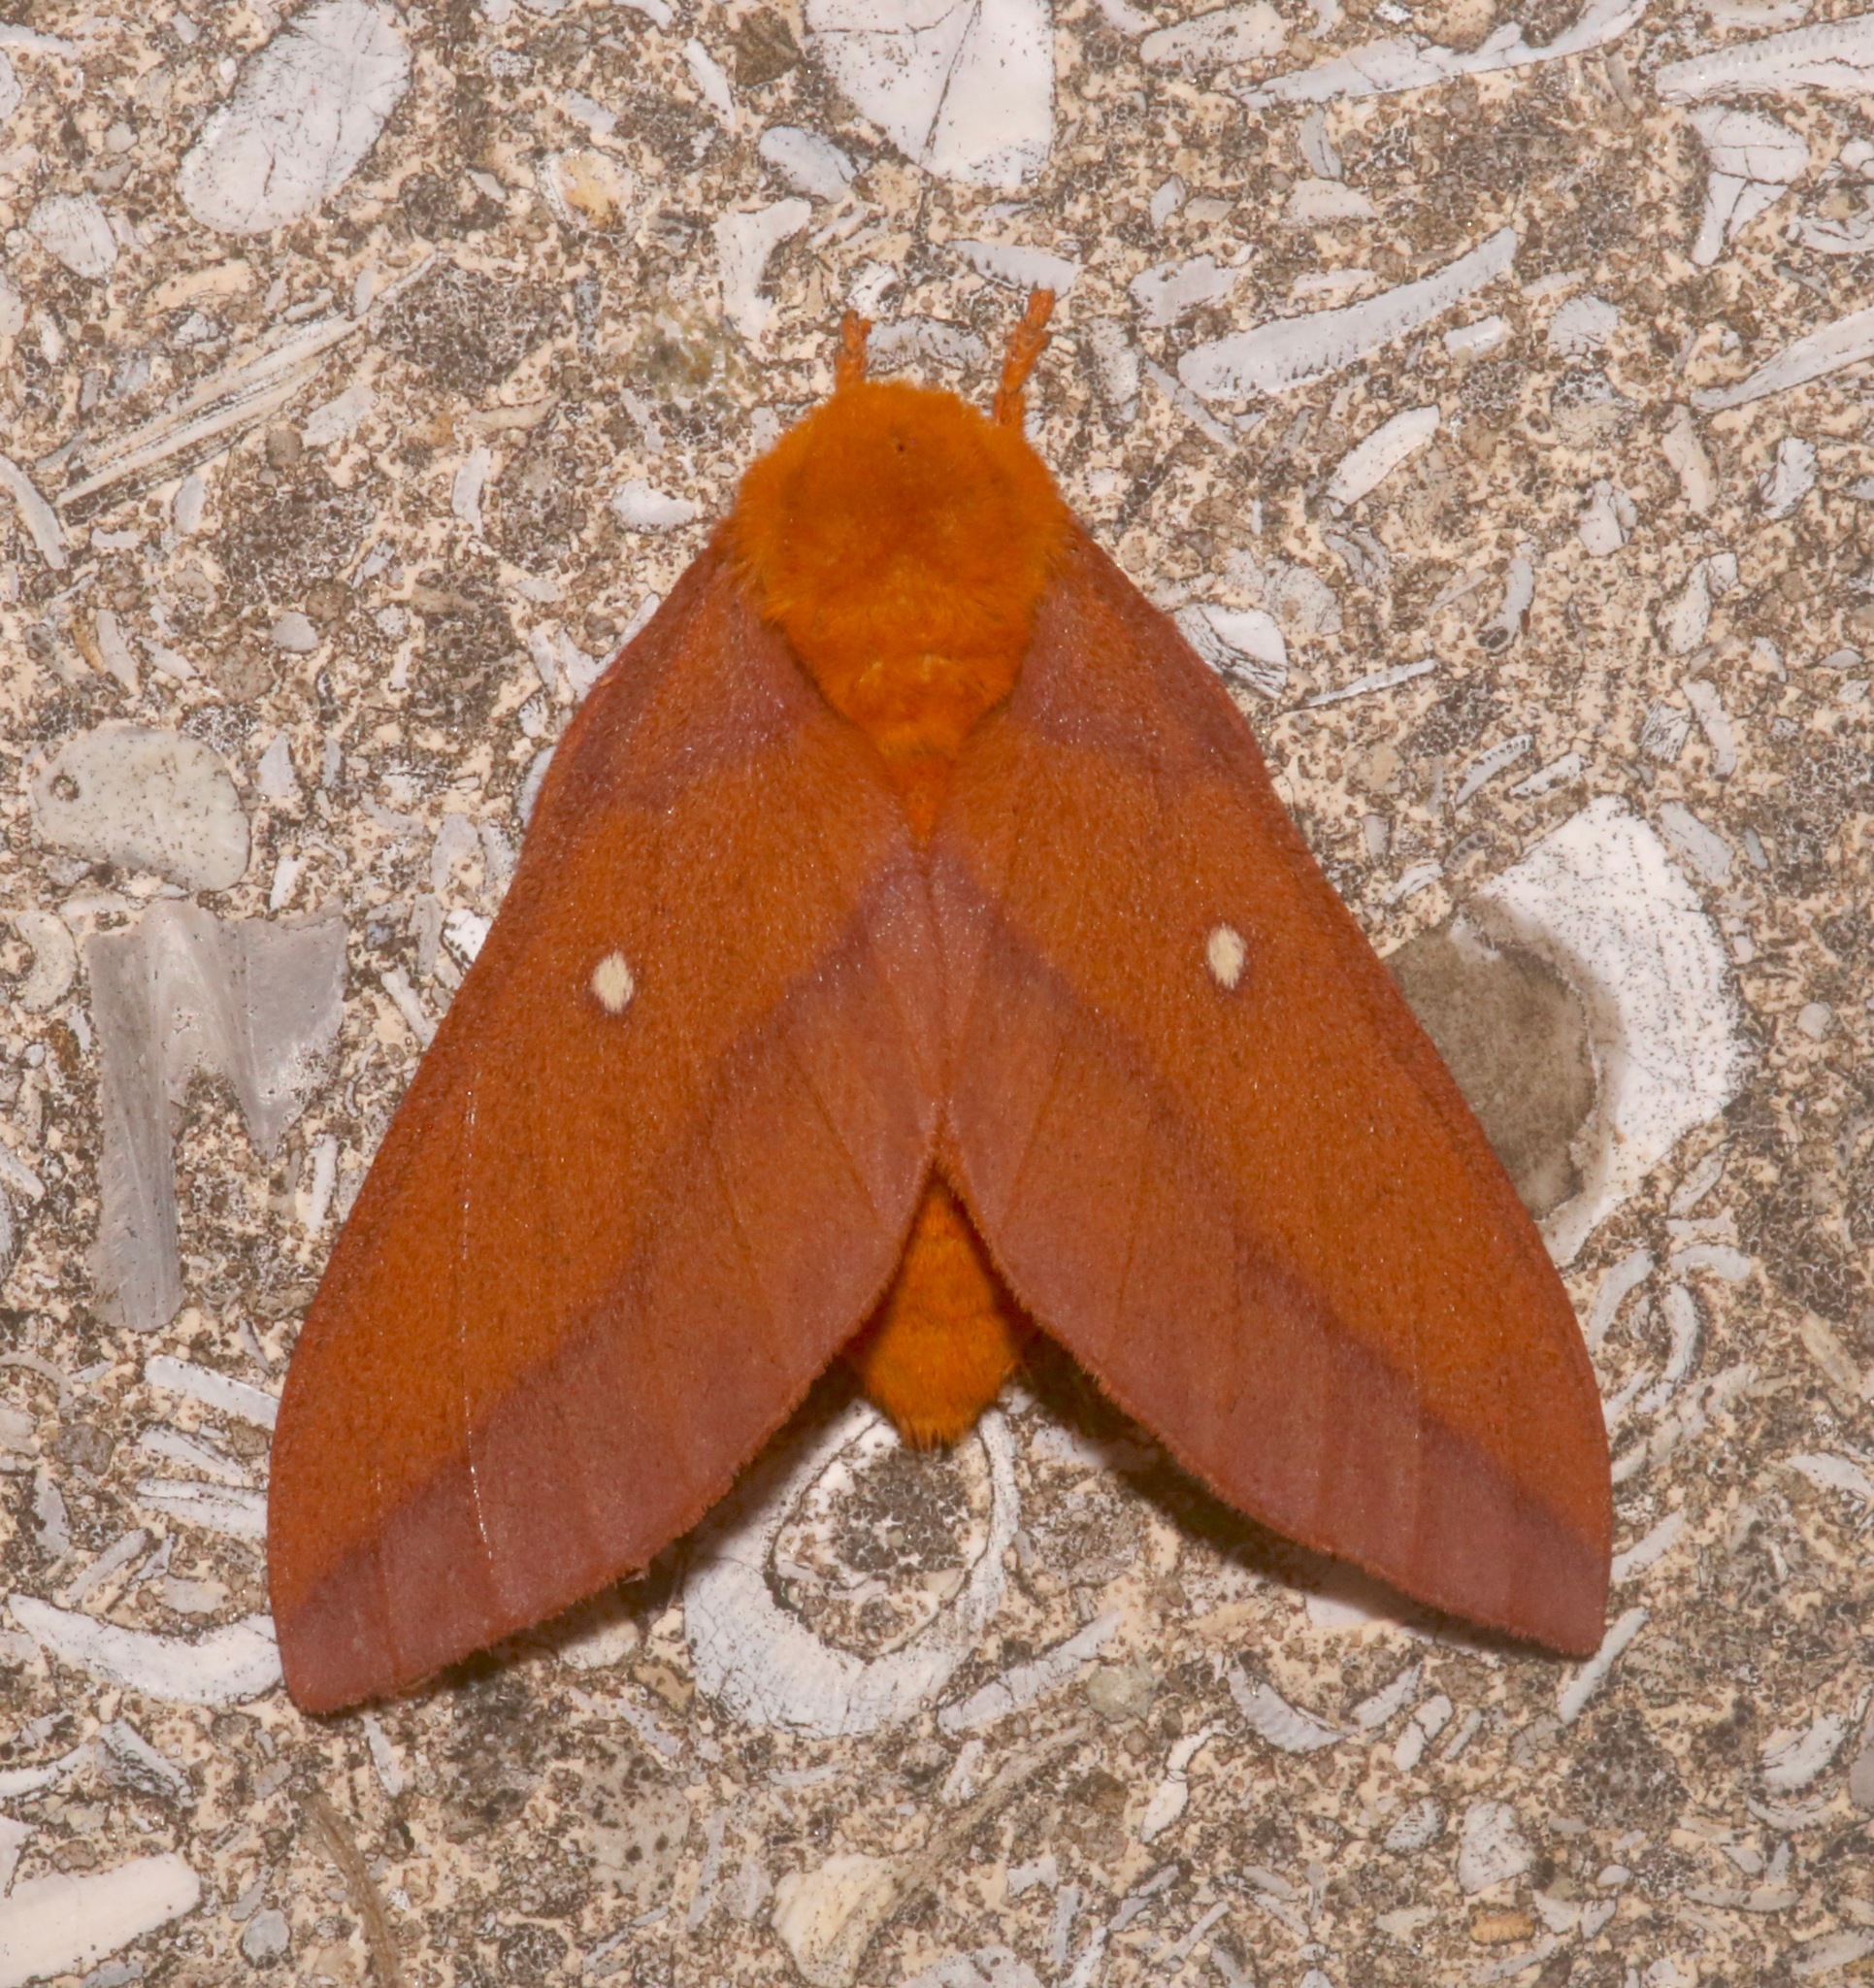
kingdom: Animalia
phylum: Arthropoda
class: Insecta
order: Lepidoptera
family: Saturniidae
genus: Anisota
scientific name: Anisota virginiensis
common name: Pink striped oakworm moth
